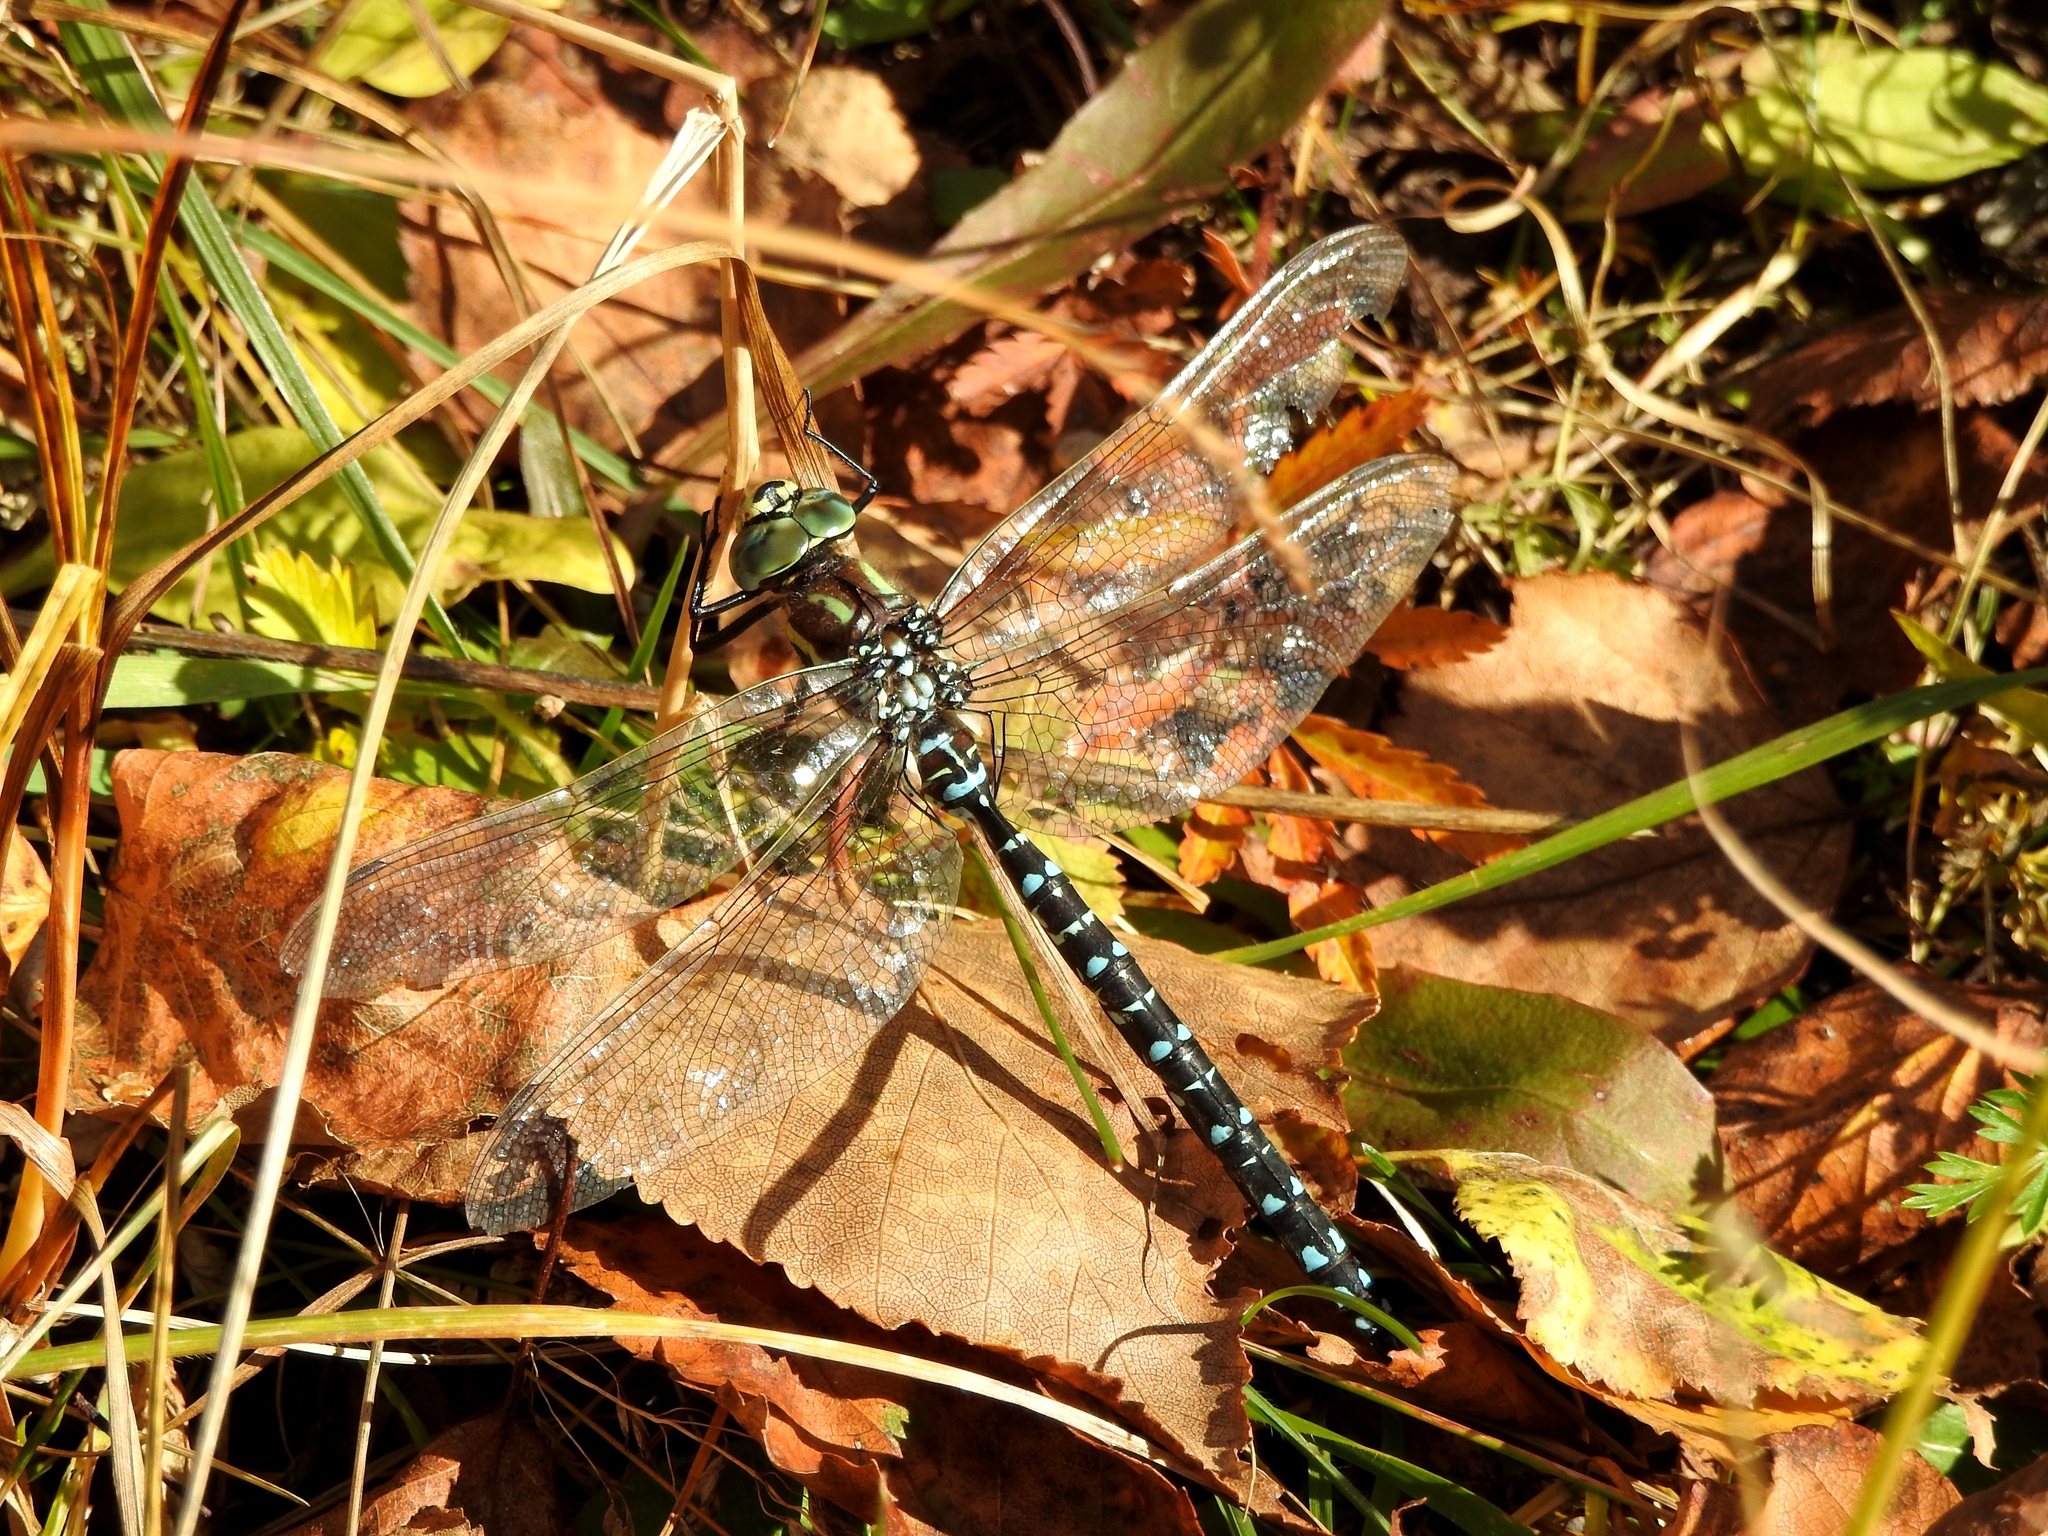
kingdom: Animalia
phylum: Arthropoda
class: Insecta
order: Odonata
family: Aeshnidae
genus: Aeshna
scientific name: Aeshna juncea
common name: Moorland hawker
